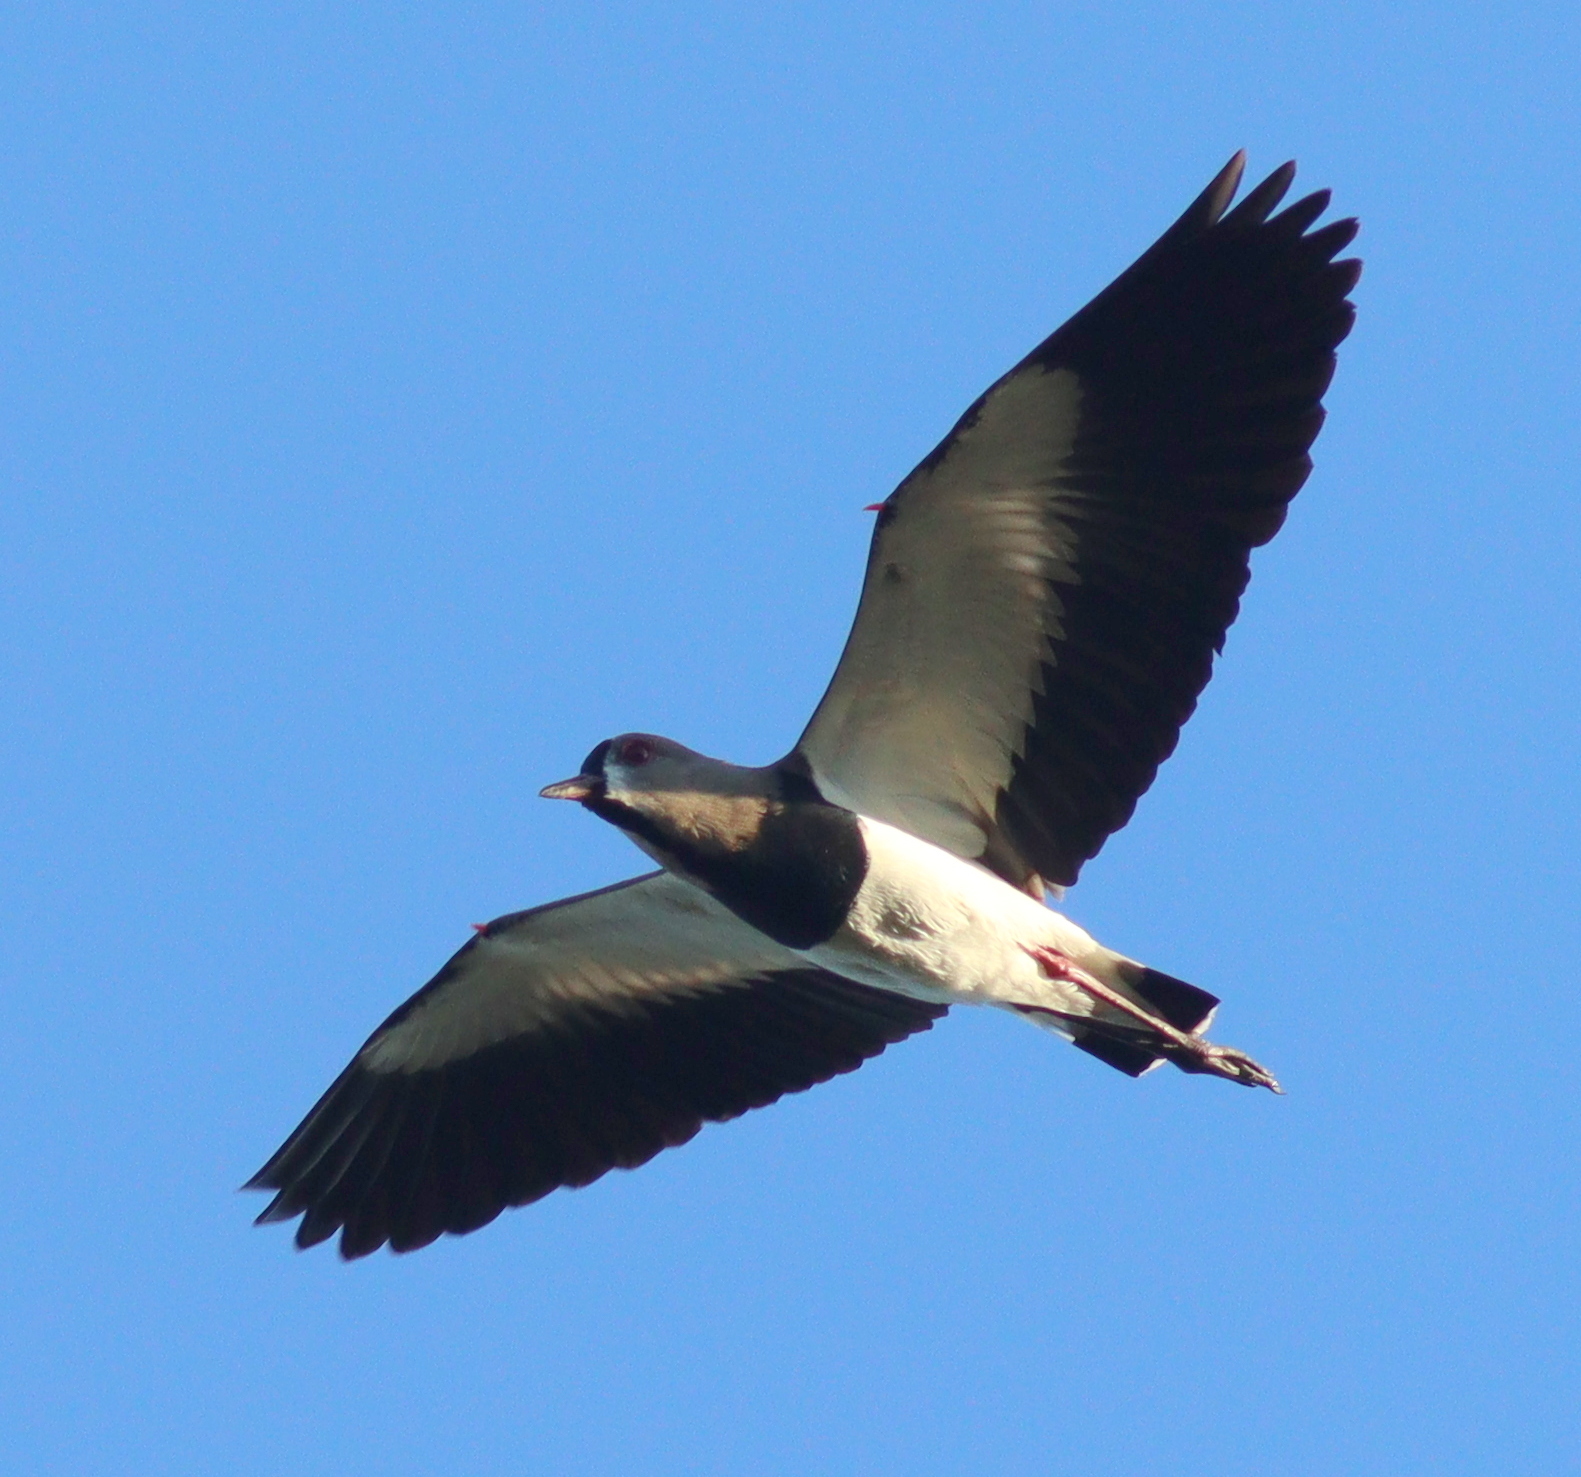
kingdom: Animalia
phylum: Chordata
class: Aves
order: Charadriiformes
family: Charadriidae
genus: Vanellus
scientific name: Vanellus chilensis
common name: Southern lapwing
